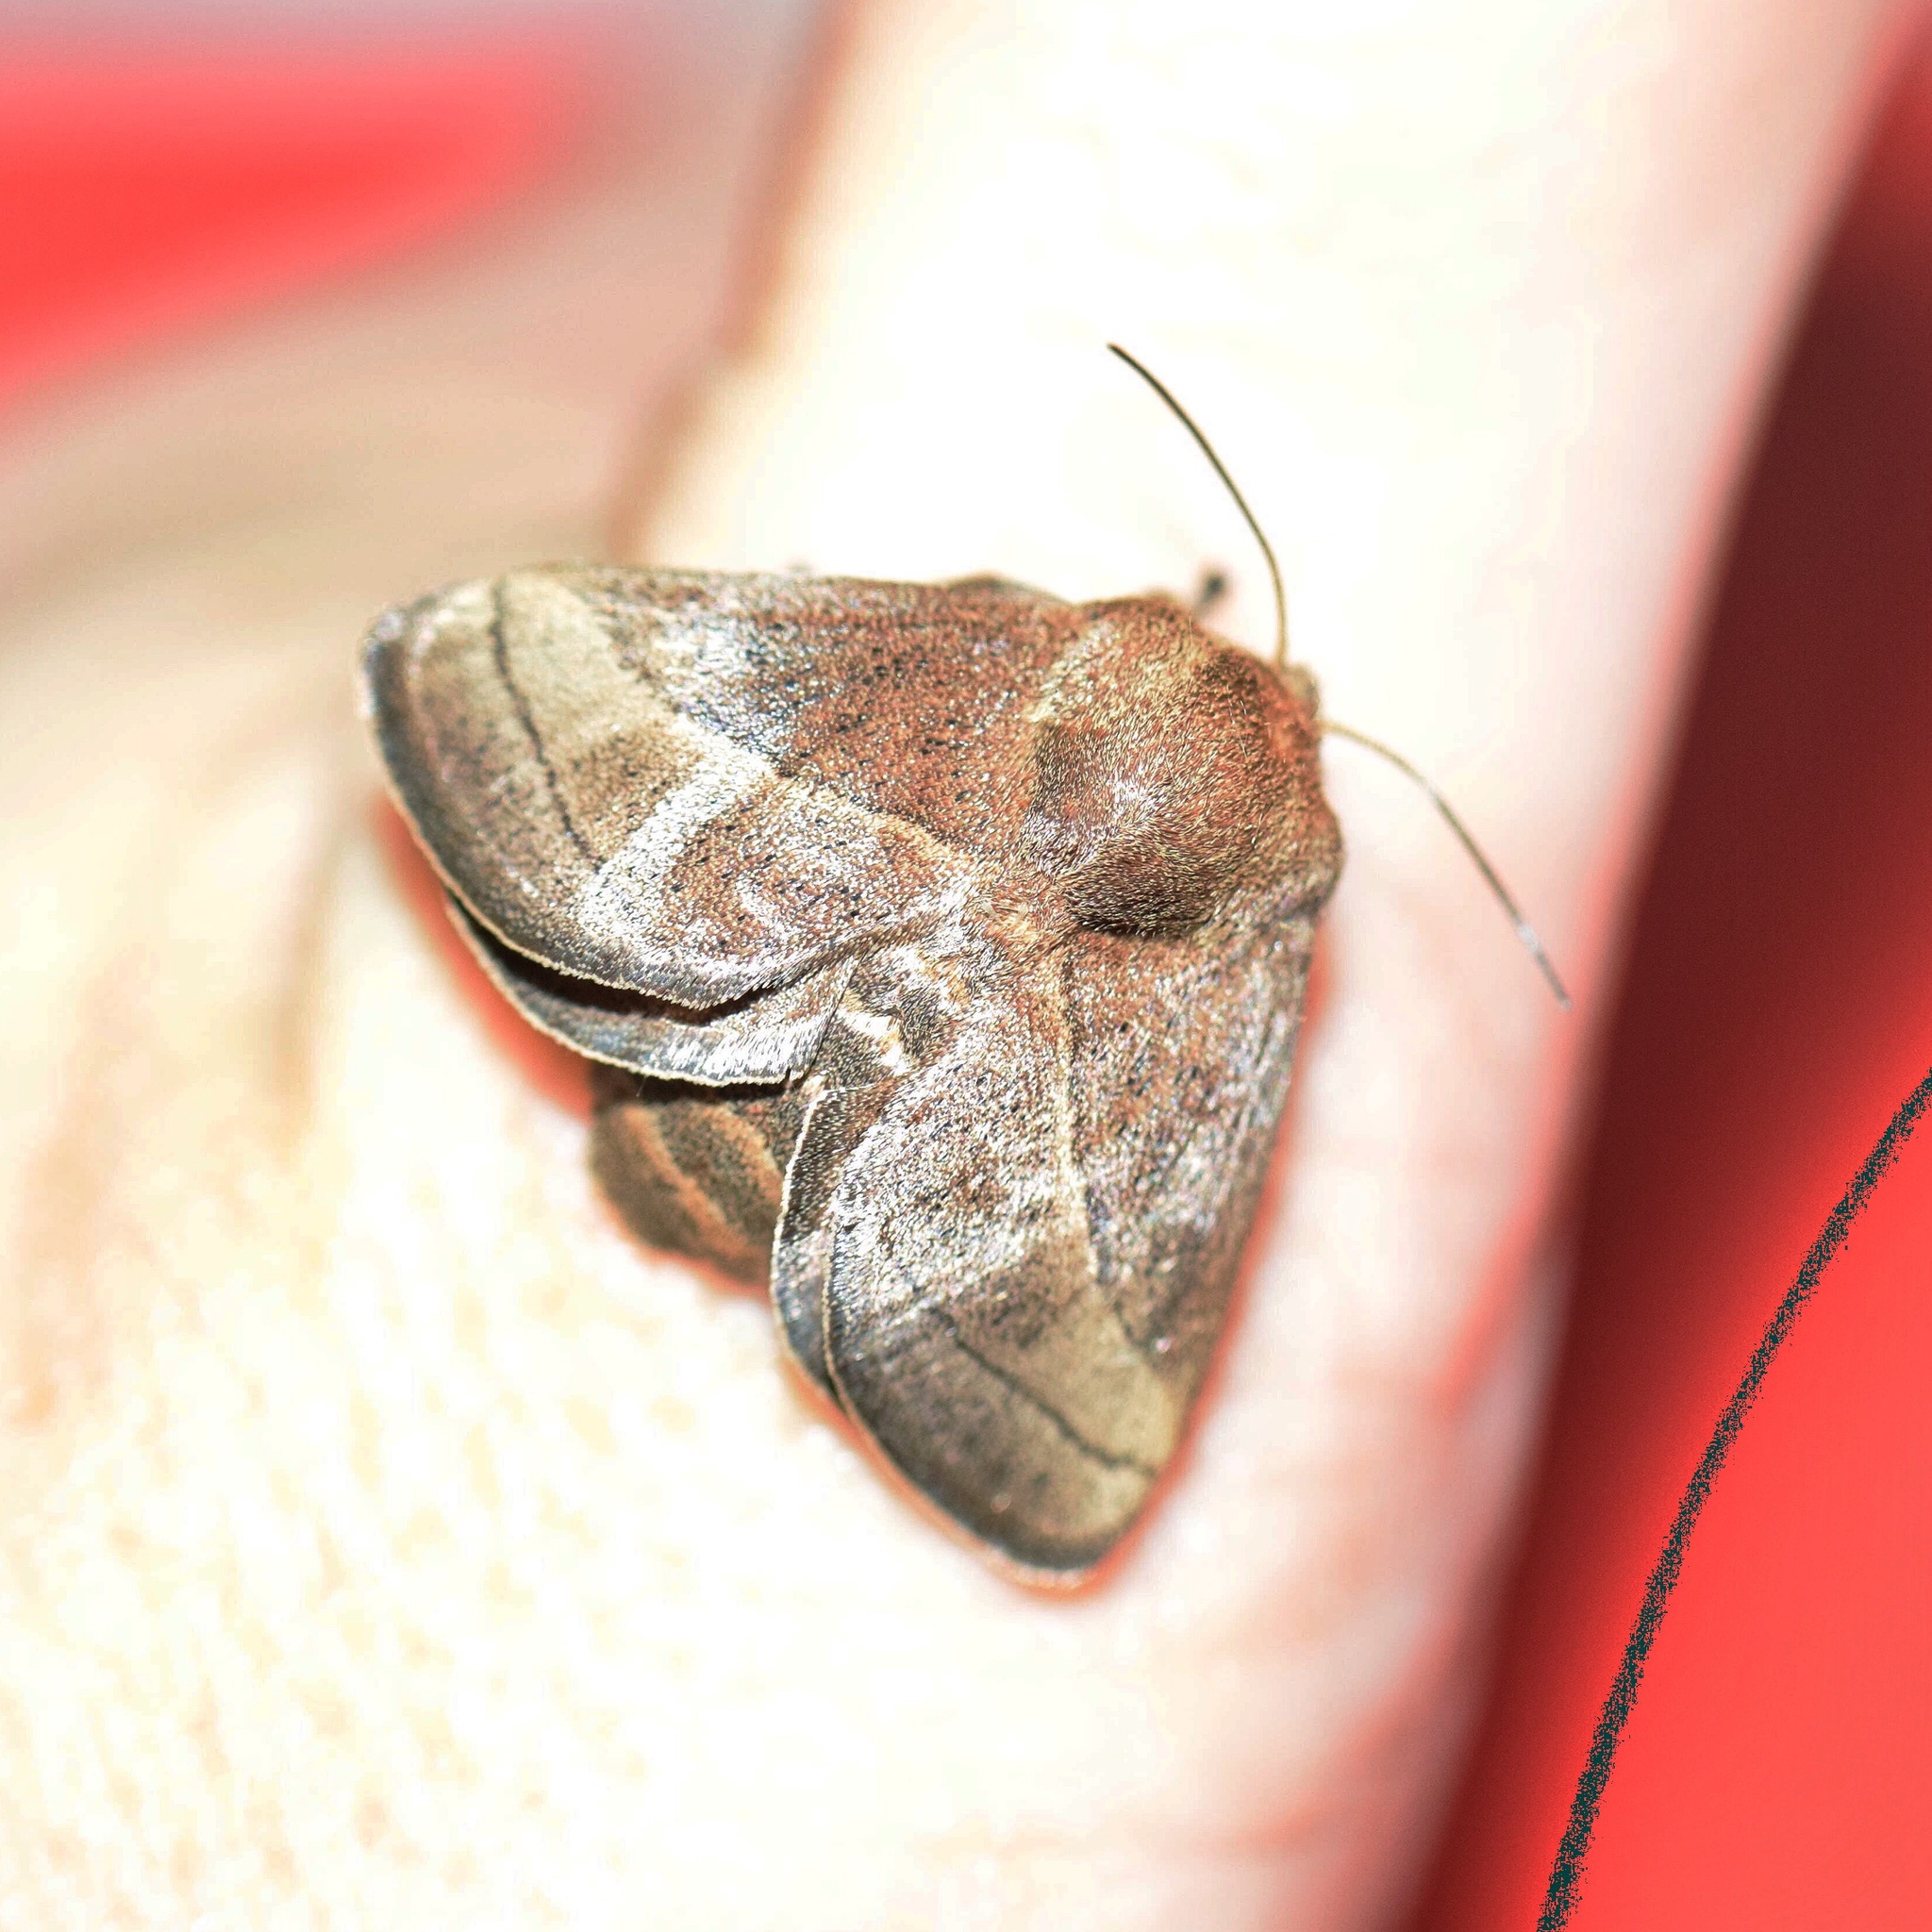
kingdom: Animalia
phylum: Arthropoda
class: Insecta
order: Lepidoptera
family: Limacodidae
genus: Omocenoides
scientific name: Omocenoides isophanes
